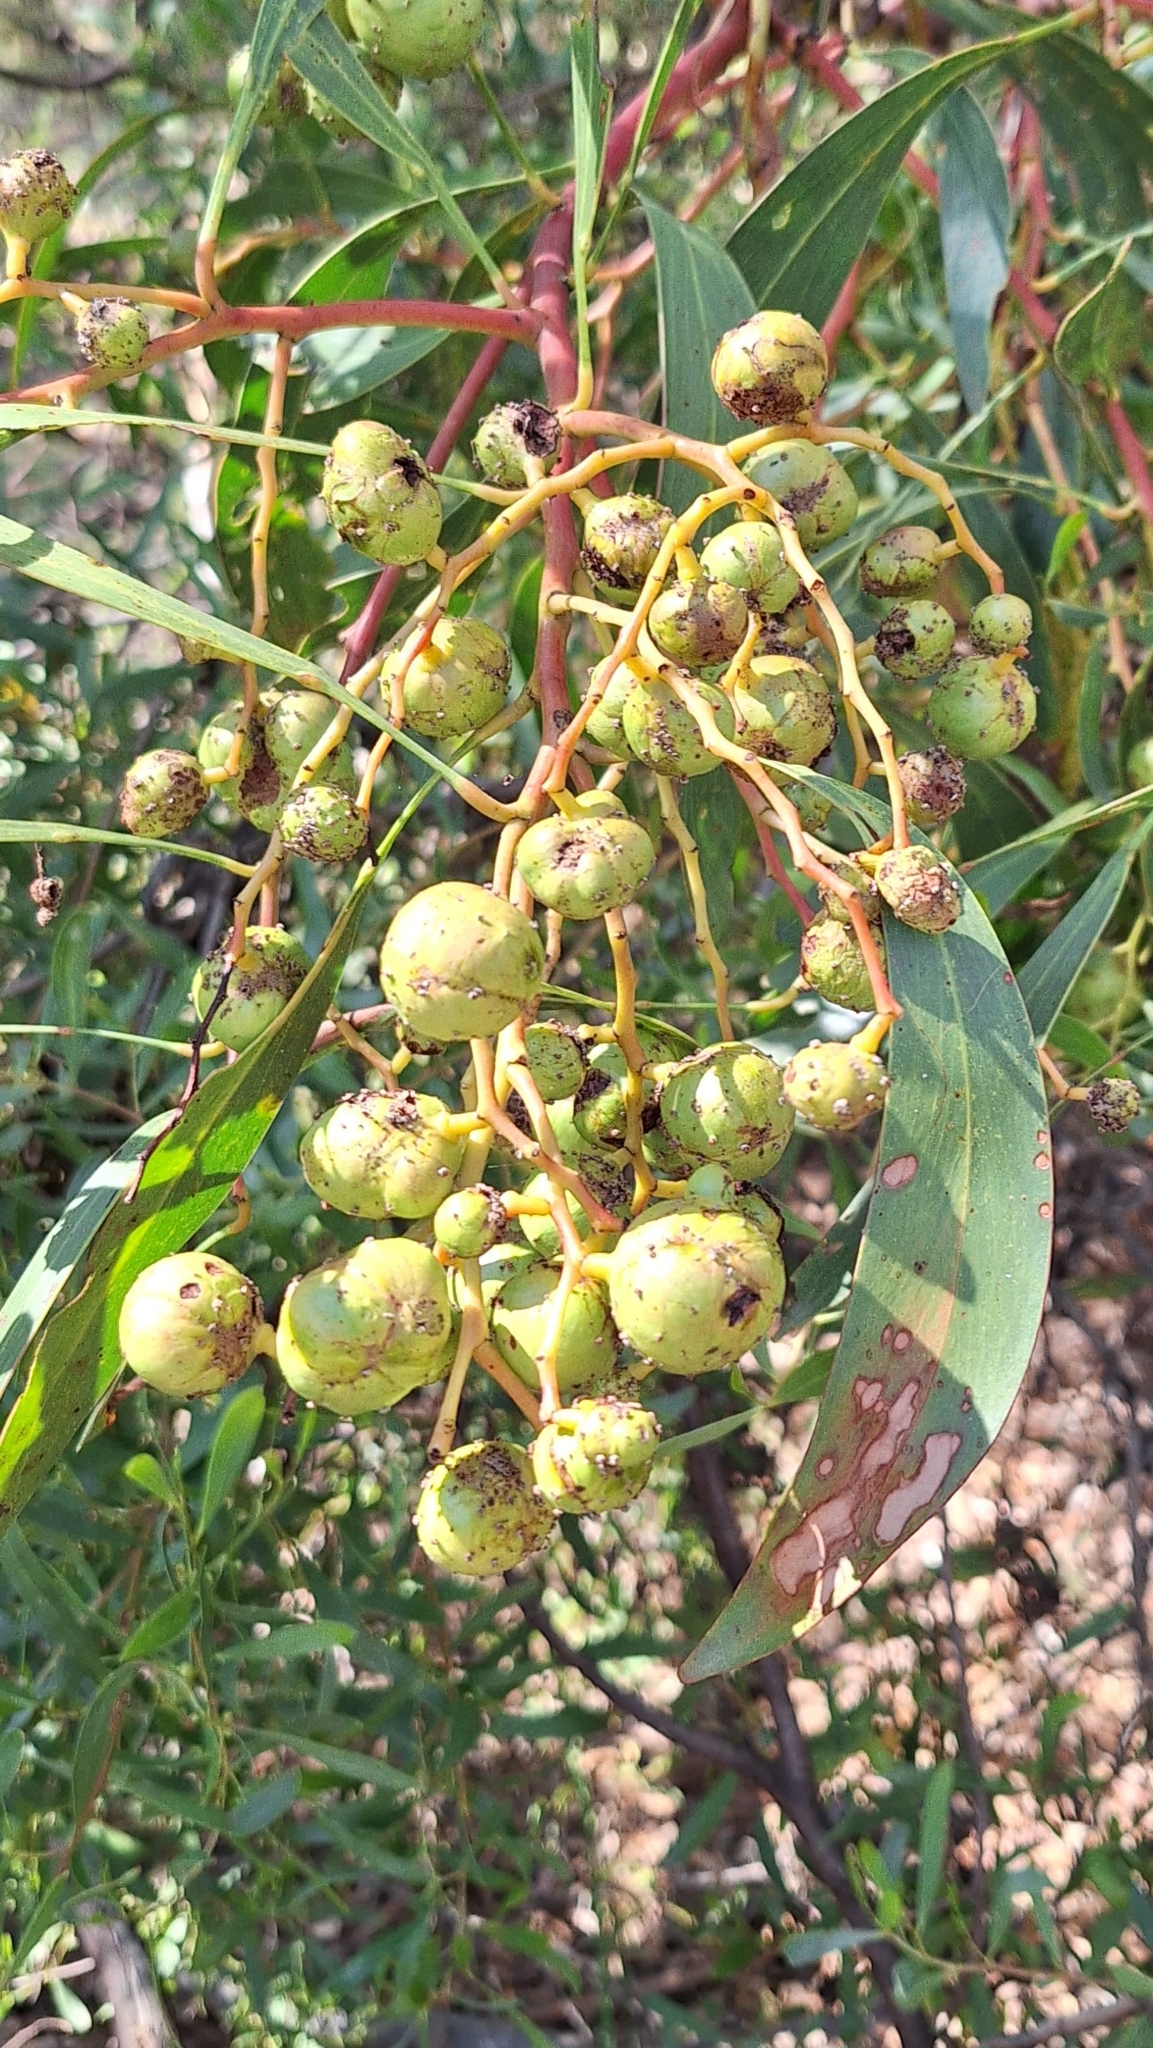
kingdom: Animalia
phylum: Arthropoda
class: Insecta
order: Hymenoptera
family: Pteromalidae
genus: Trichilogaster
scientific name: Trichilogaster signiventris
